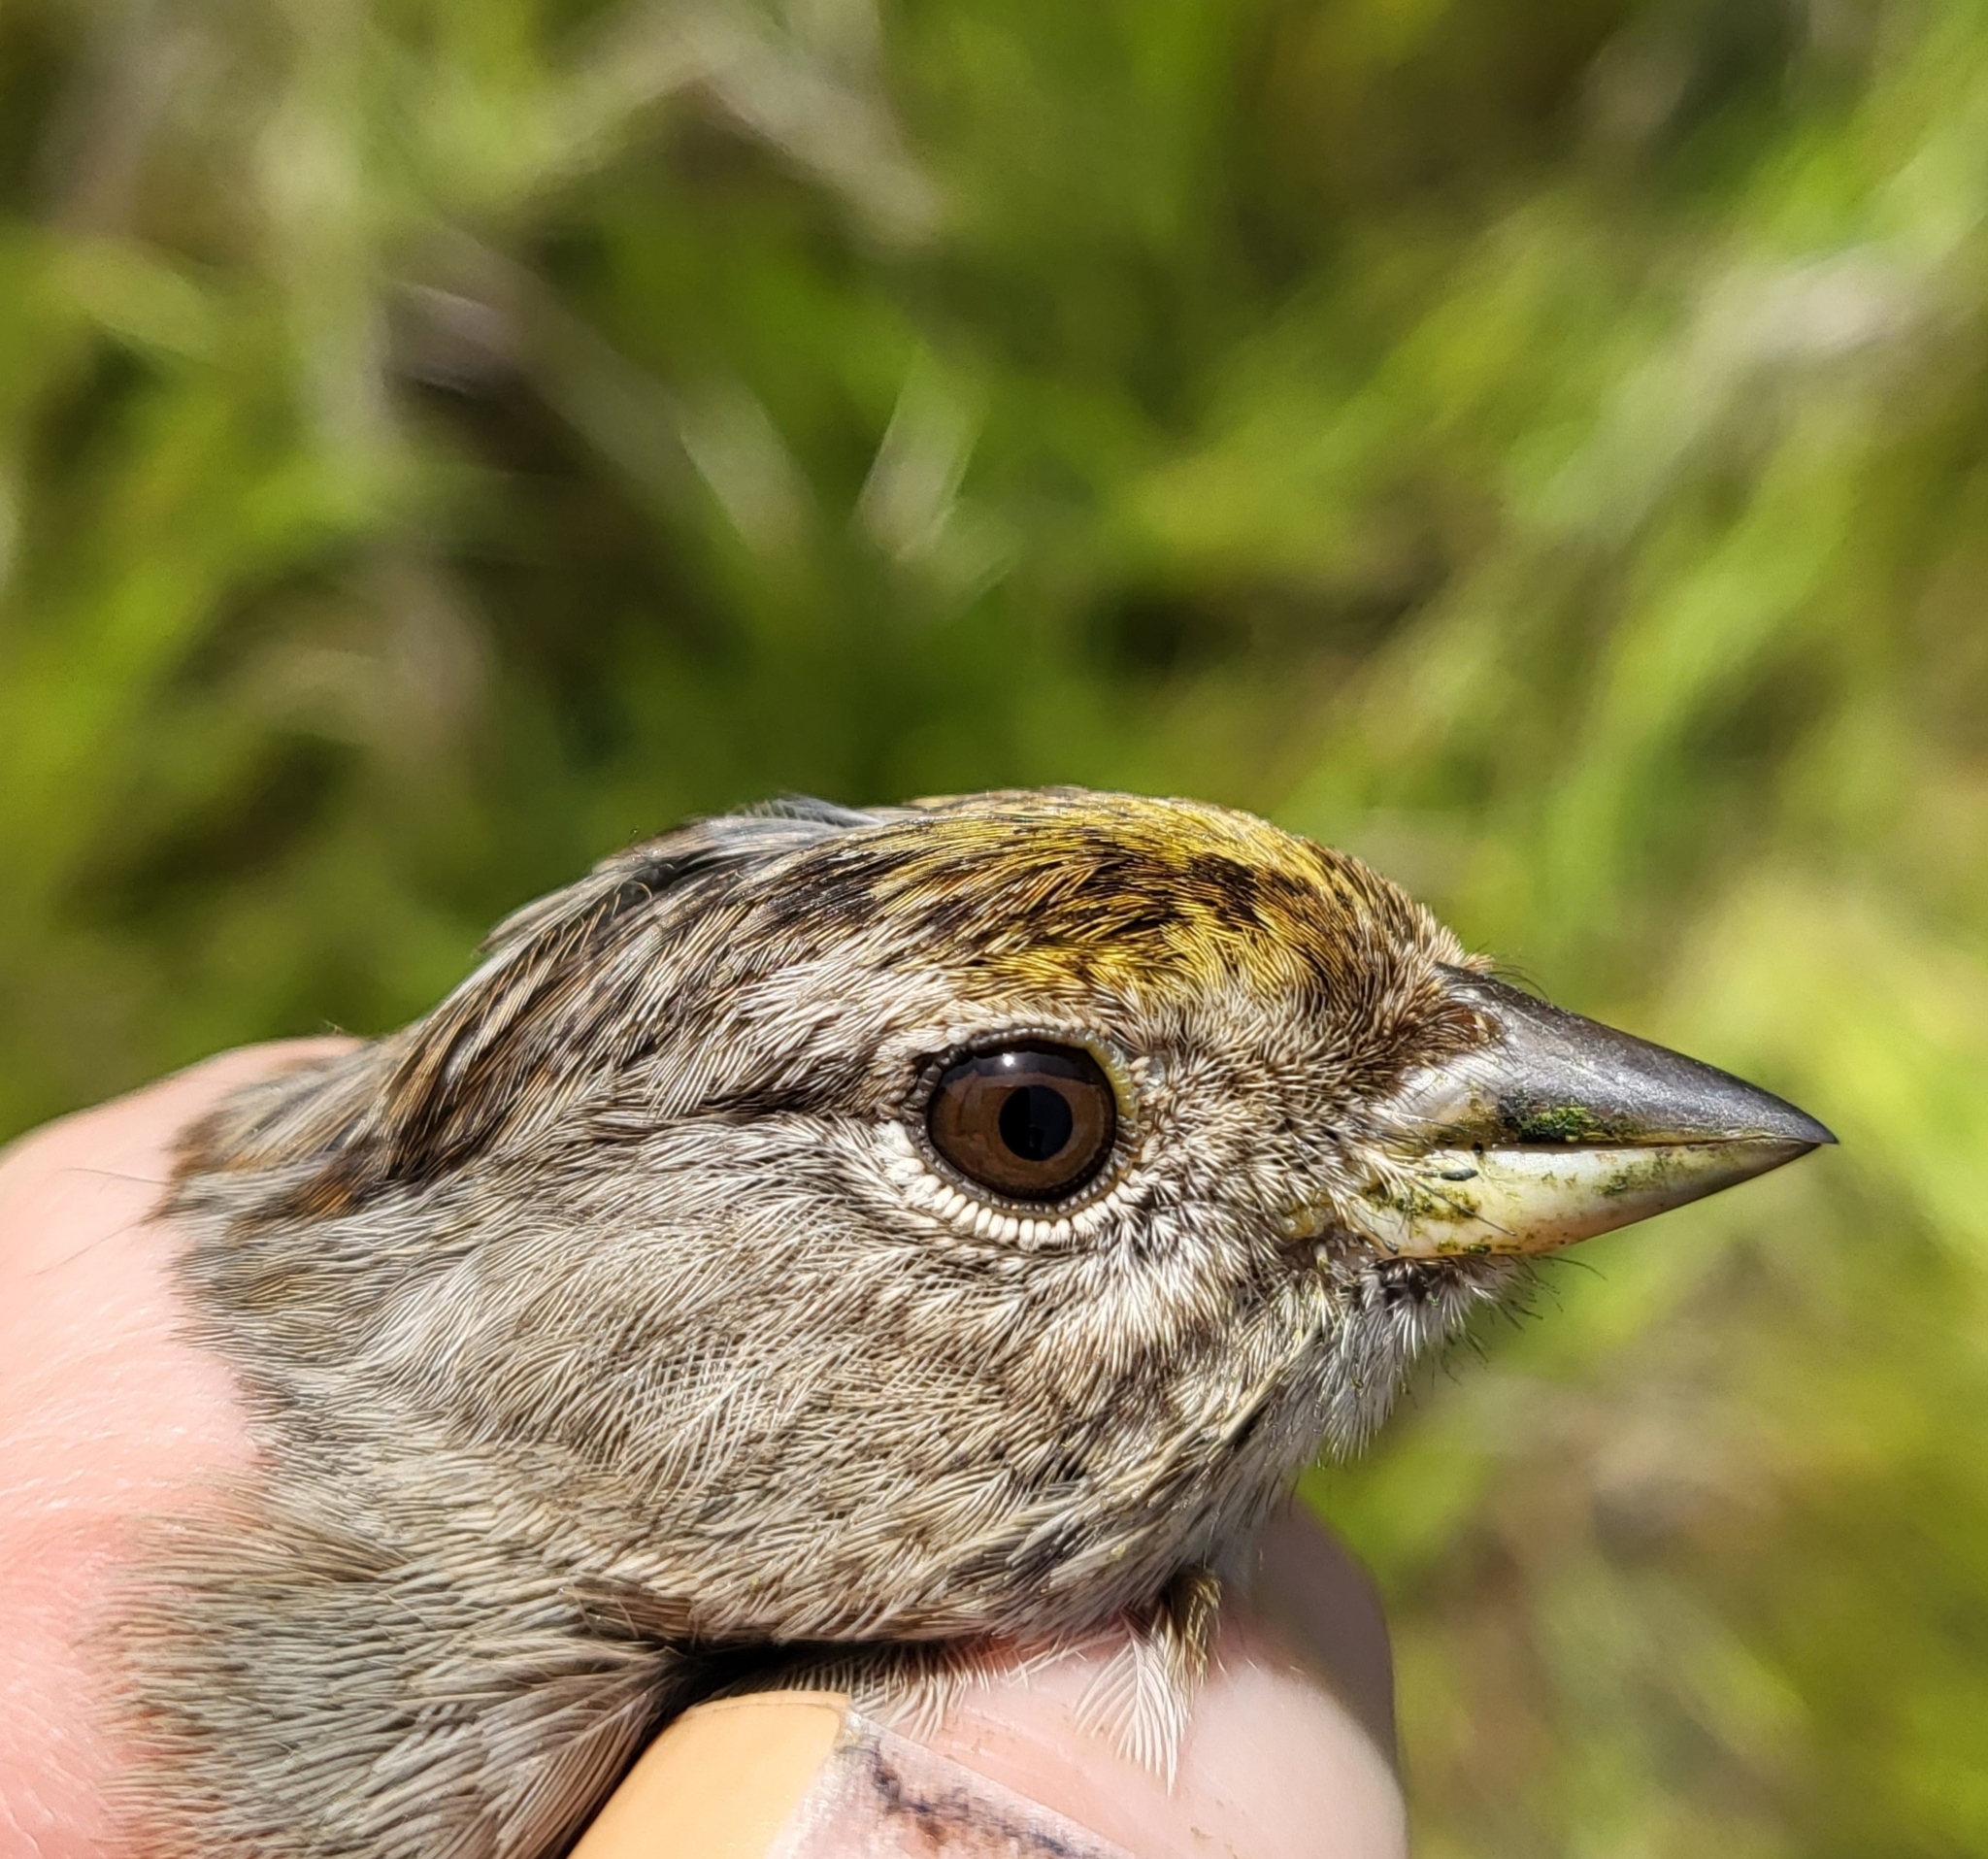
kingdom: Animalia
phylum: Chordata
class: Aves
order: Passeriformes
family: Passerellidae
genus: Zonotrichia
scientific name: Zonotrichia atricapilla
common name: Golden-crowned sparrow
